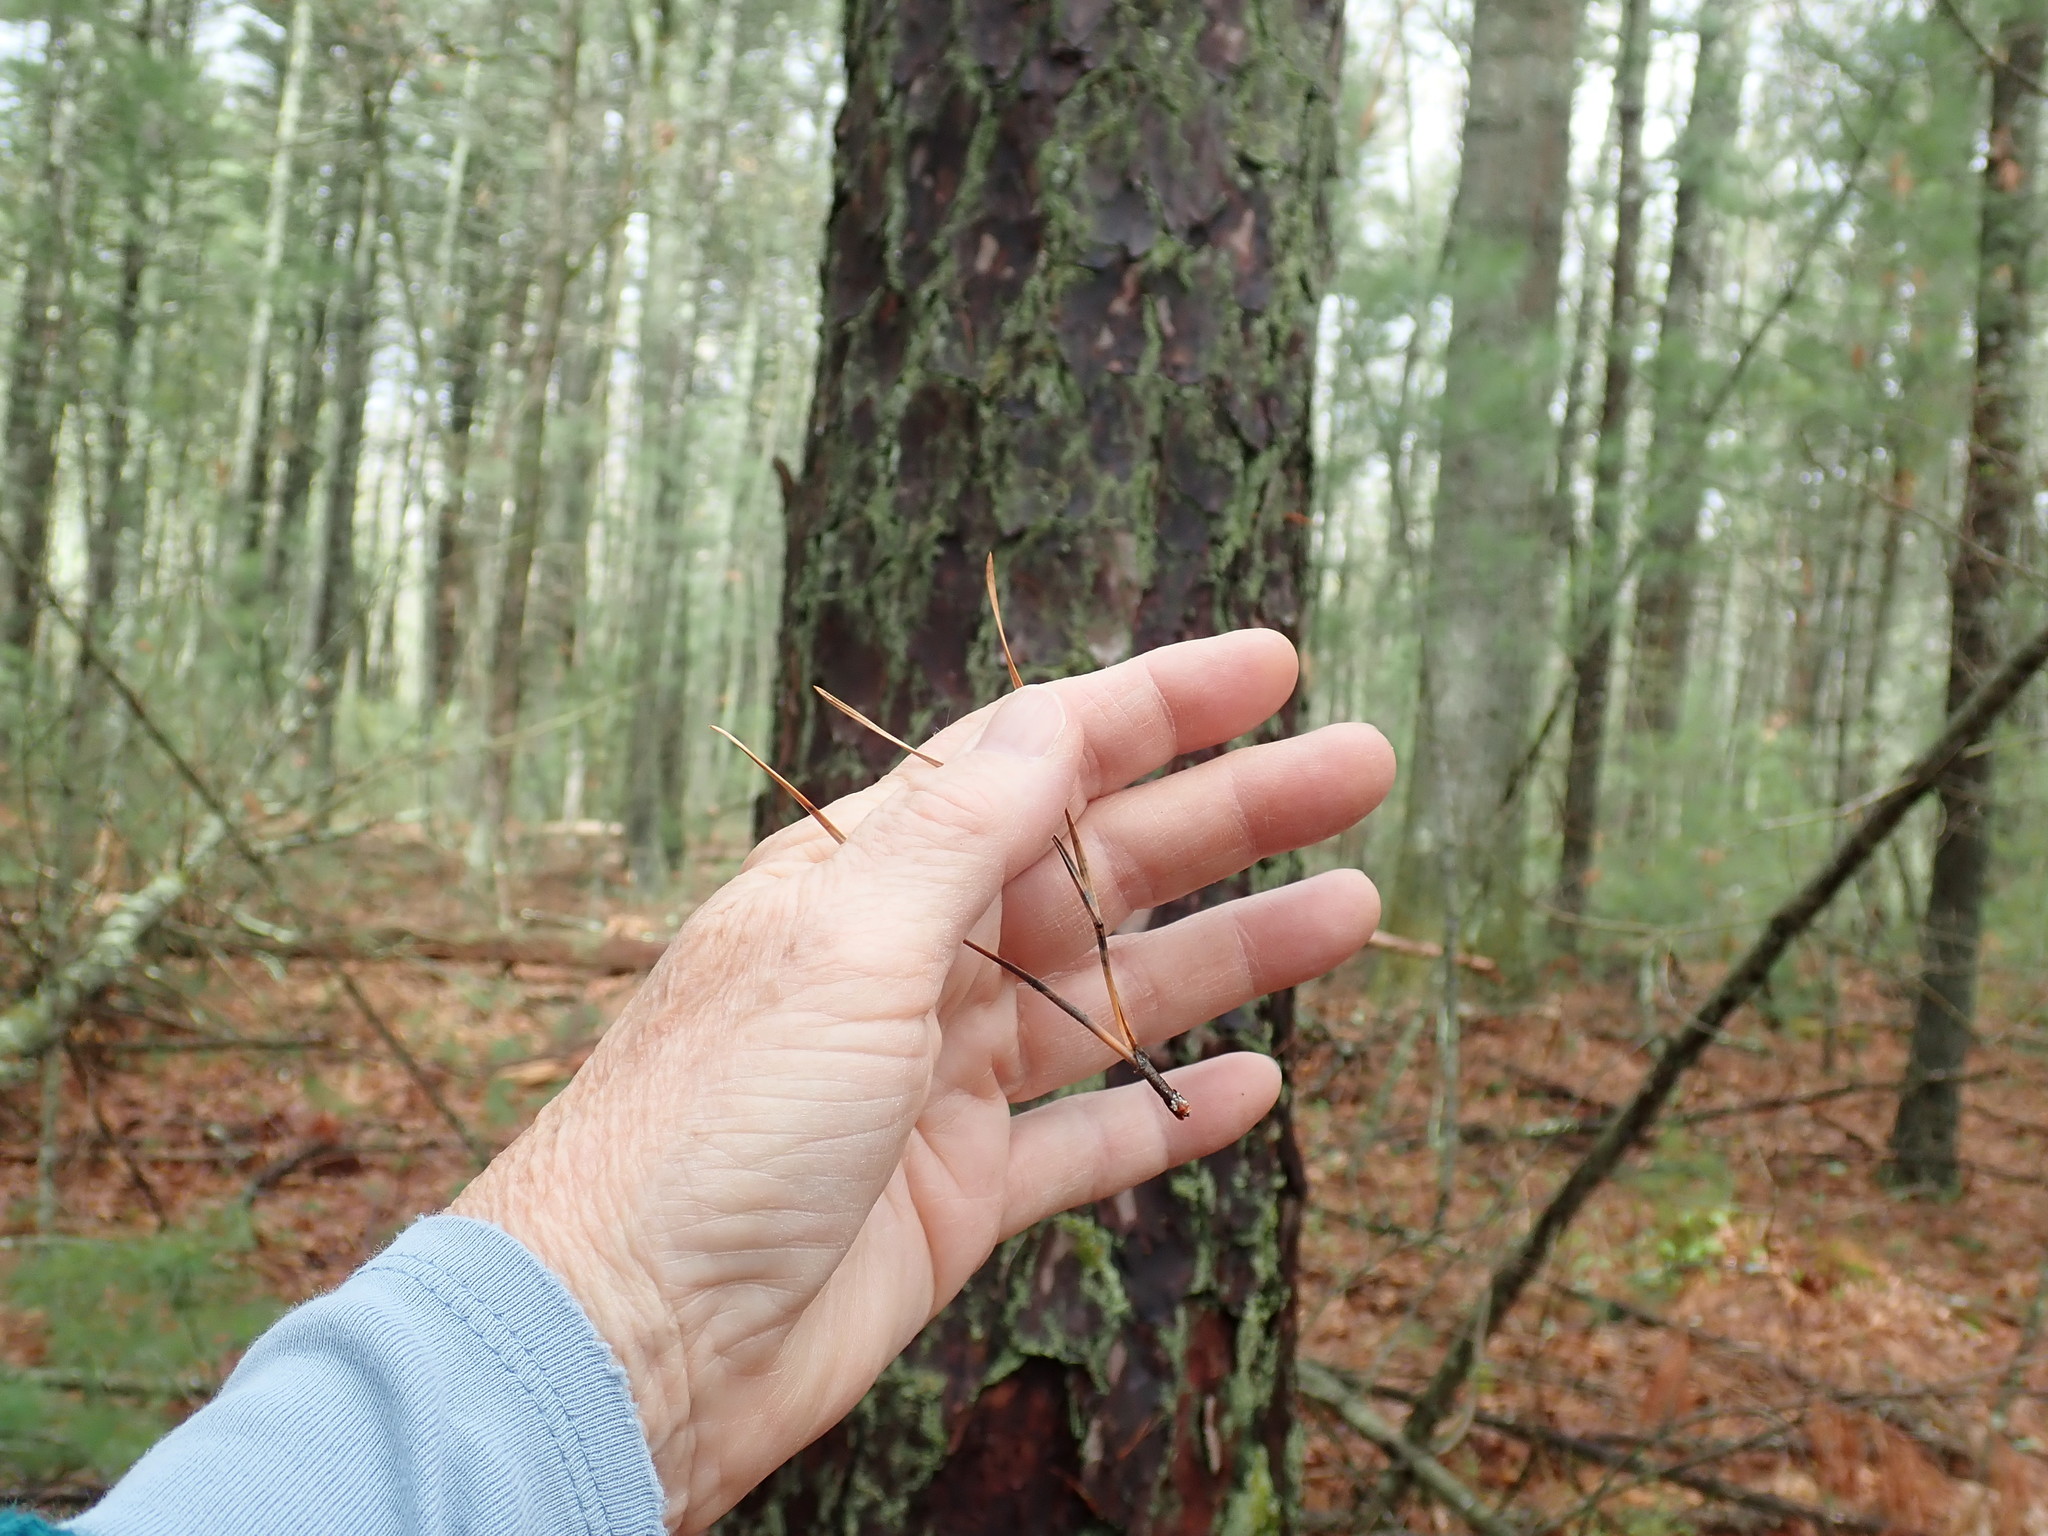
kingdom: Plantae
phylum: Tracheophyta
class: Pinopsida
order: Pinales
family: Pinaceae
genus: Pinus
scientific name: Pinus rigida
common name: Pitch pine
